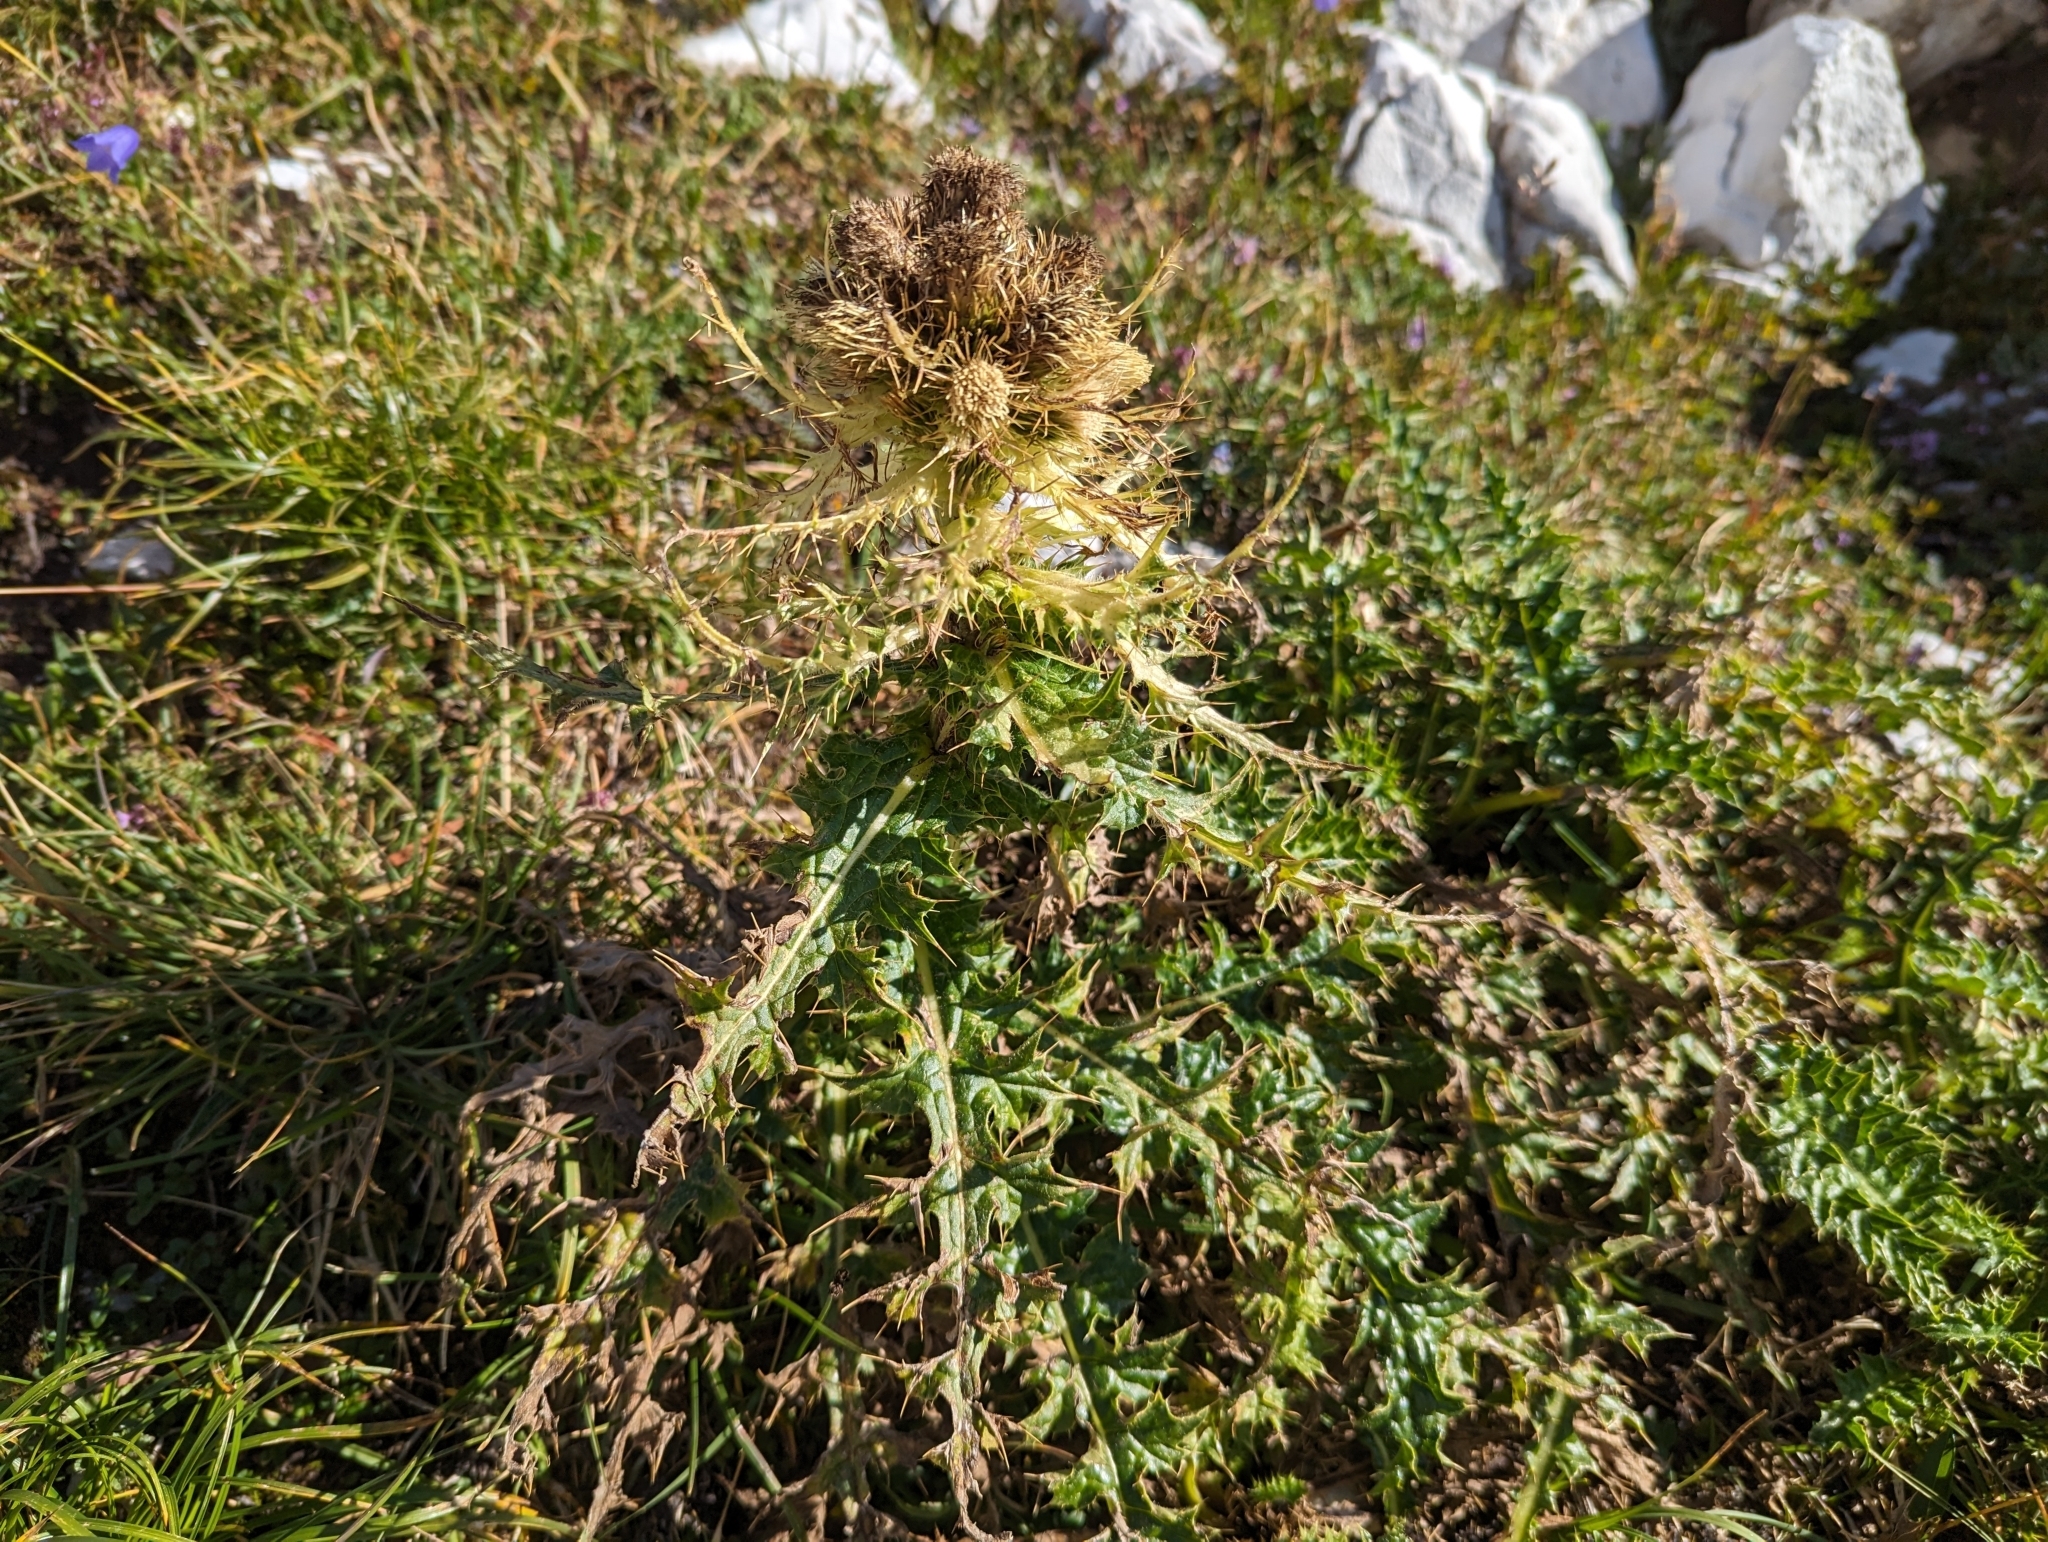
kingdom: Plantae
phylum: Tracheophyta
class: Magnoliopsida
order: Asterales
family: Asteraceae
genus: Cirsium
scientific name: Cirsium spinosissimum
